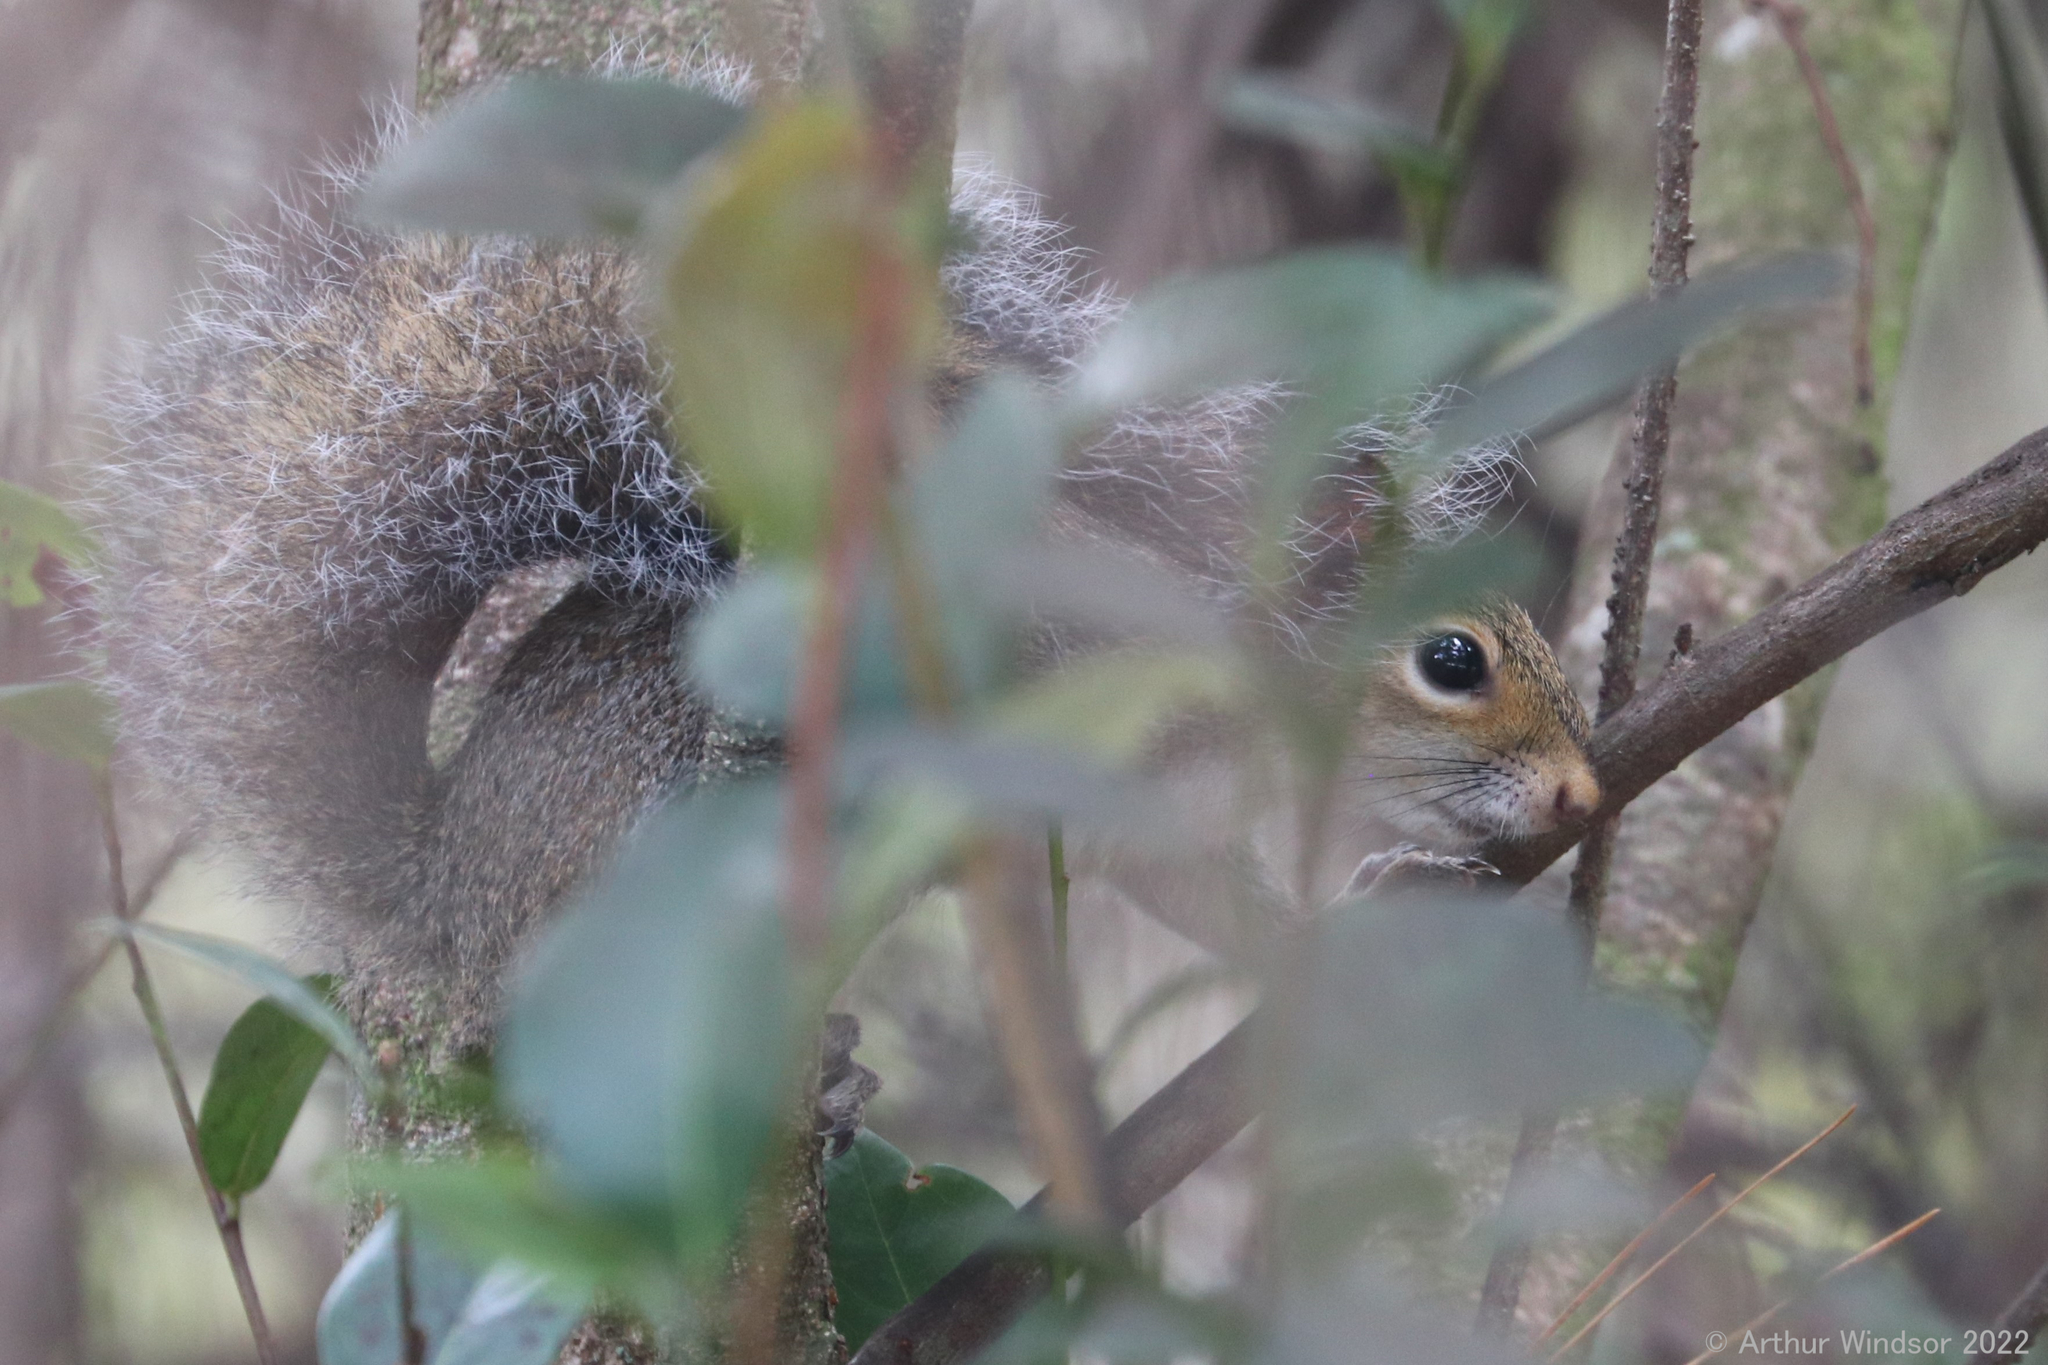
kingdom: Animalia
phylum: Chordata
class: Mammalia
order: Rodentia
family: Sciuridae
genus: Sciurus
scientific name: Sciurus carolinensis
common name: Eastern gray squirrel
